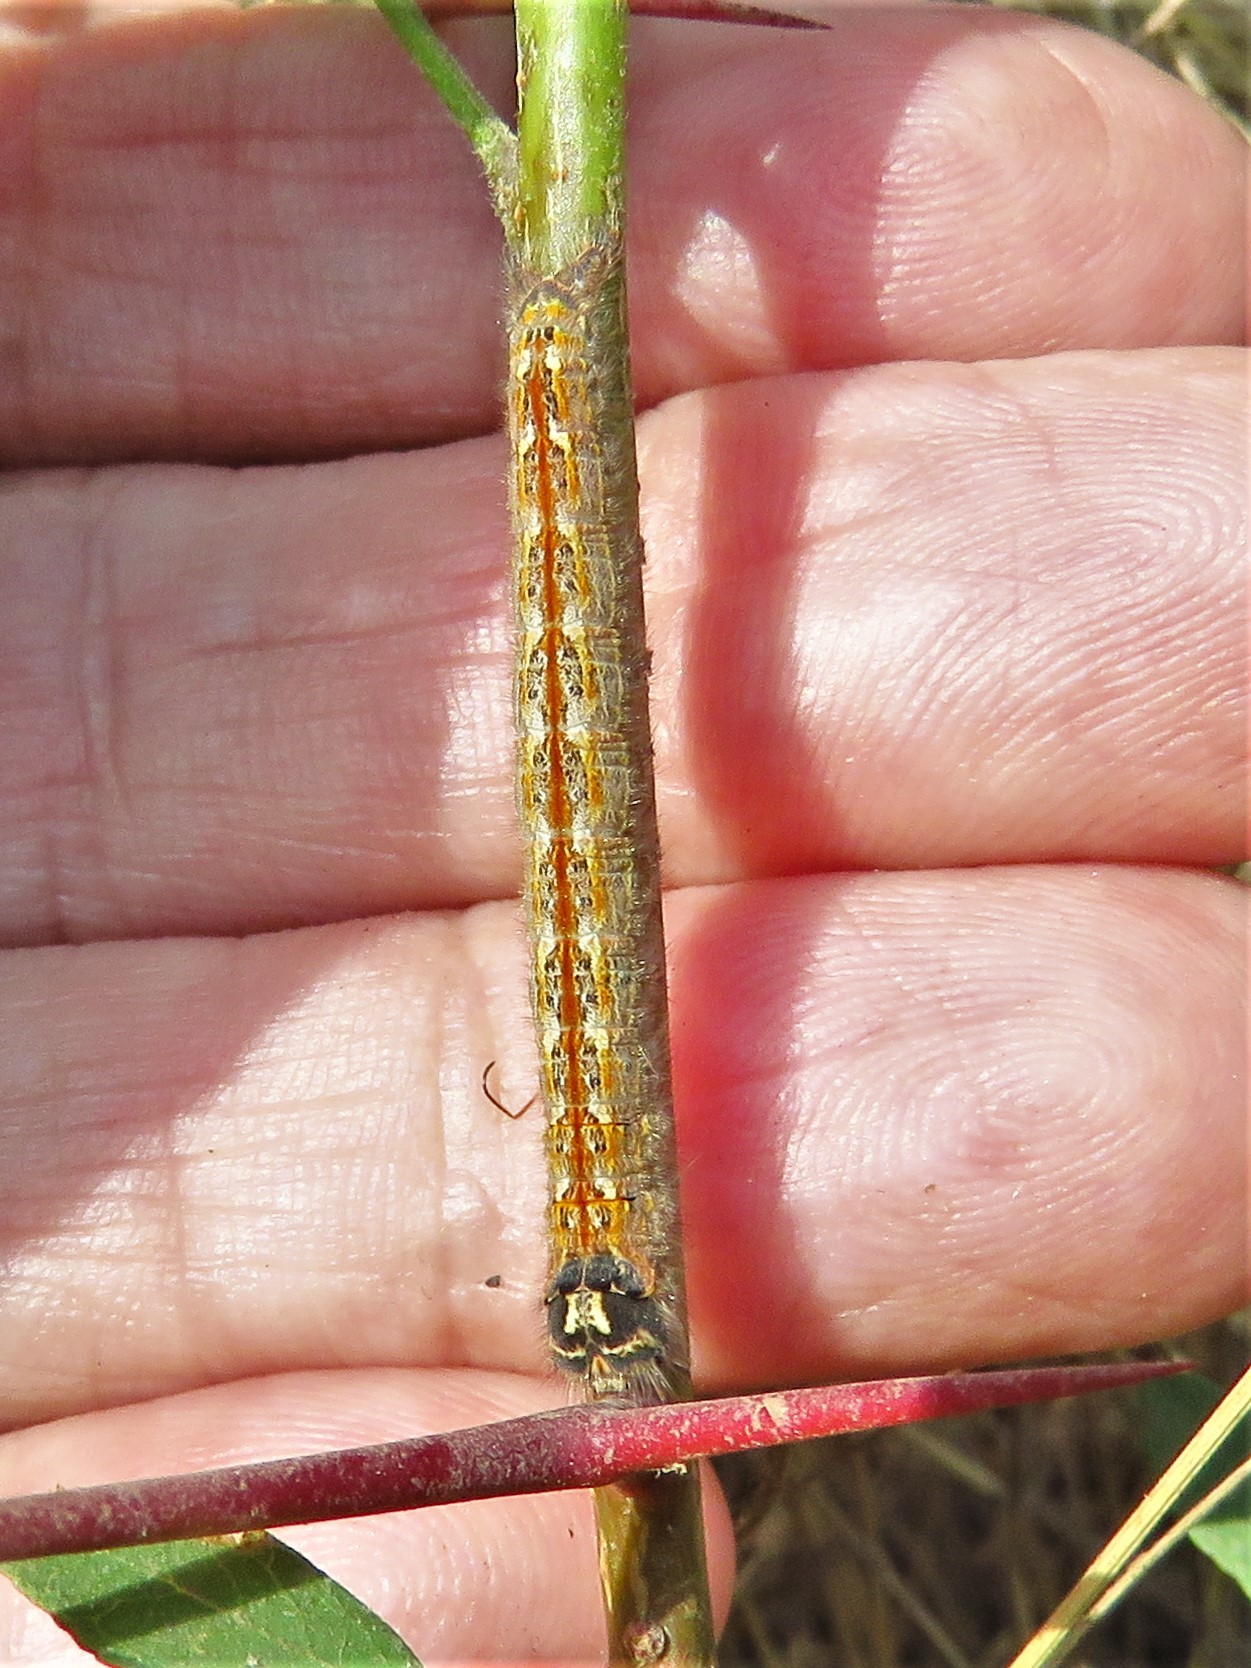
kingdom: Animalia
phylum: Arthropoda
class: Insecta
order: Lepidoptera
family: Lasiocampidae
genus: Heteropacha
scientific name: Heteropacha rileyana
